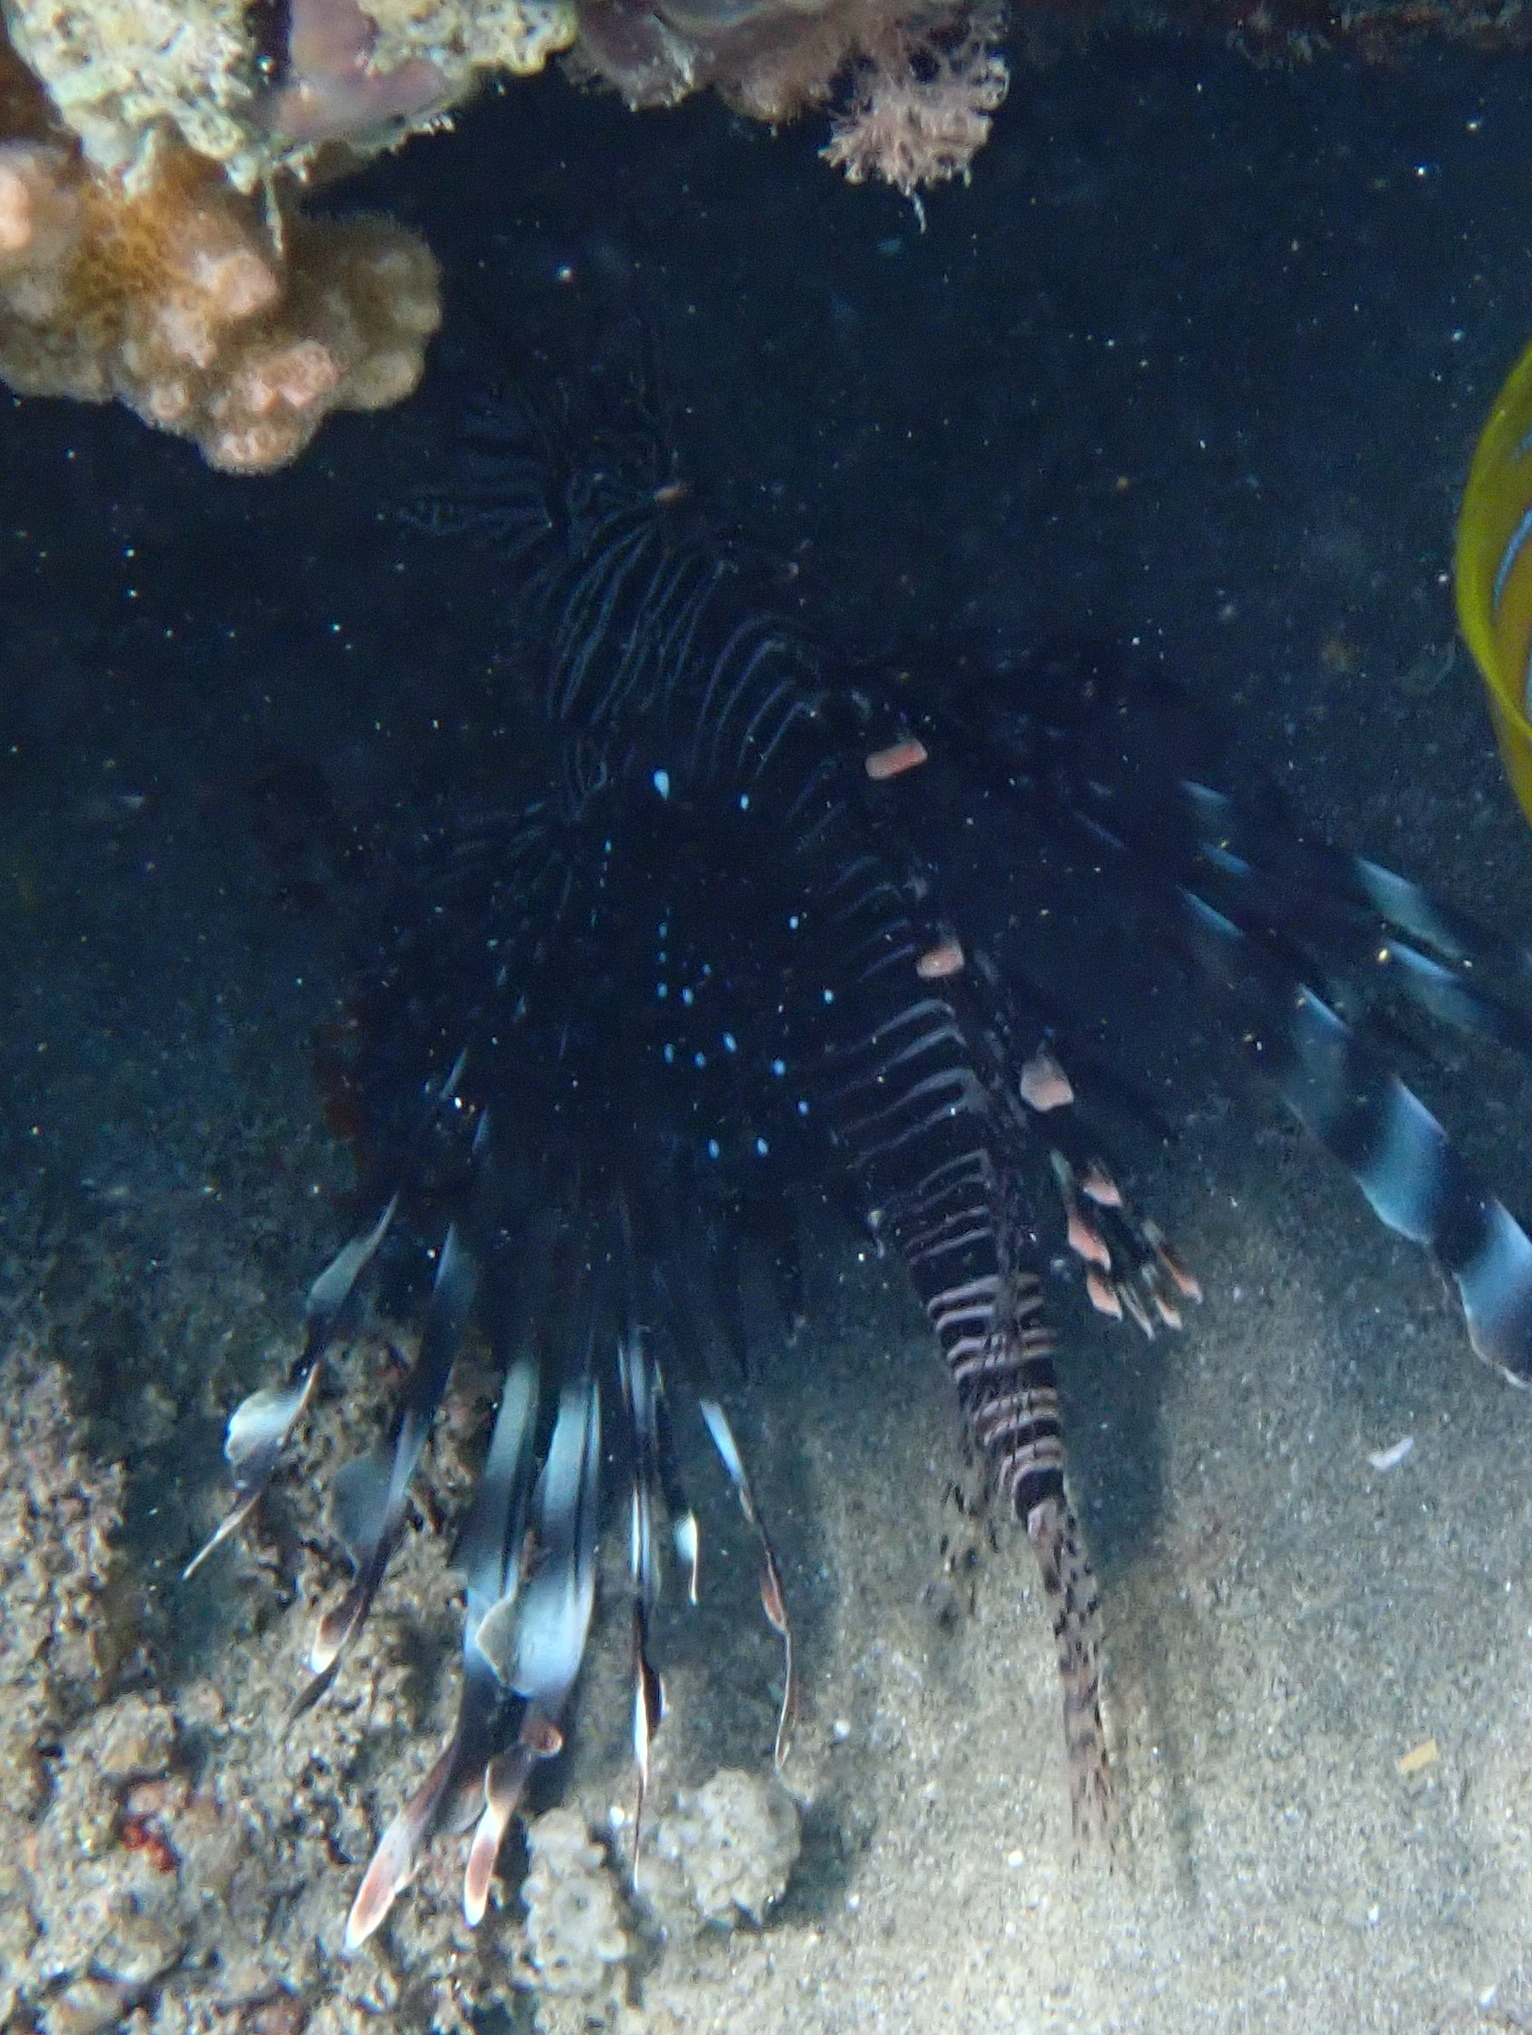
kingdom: Animalia
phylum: Chordata
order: Scorpaeniformes
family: Scorpaenidae
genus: Pterois
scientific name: Pterois miles
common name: Devil firefish
